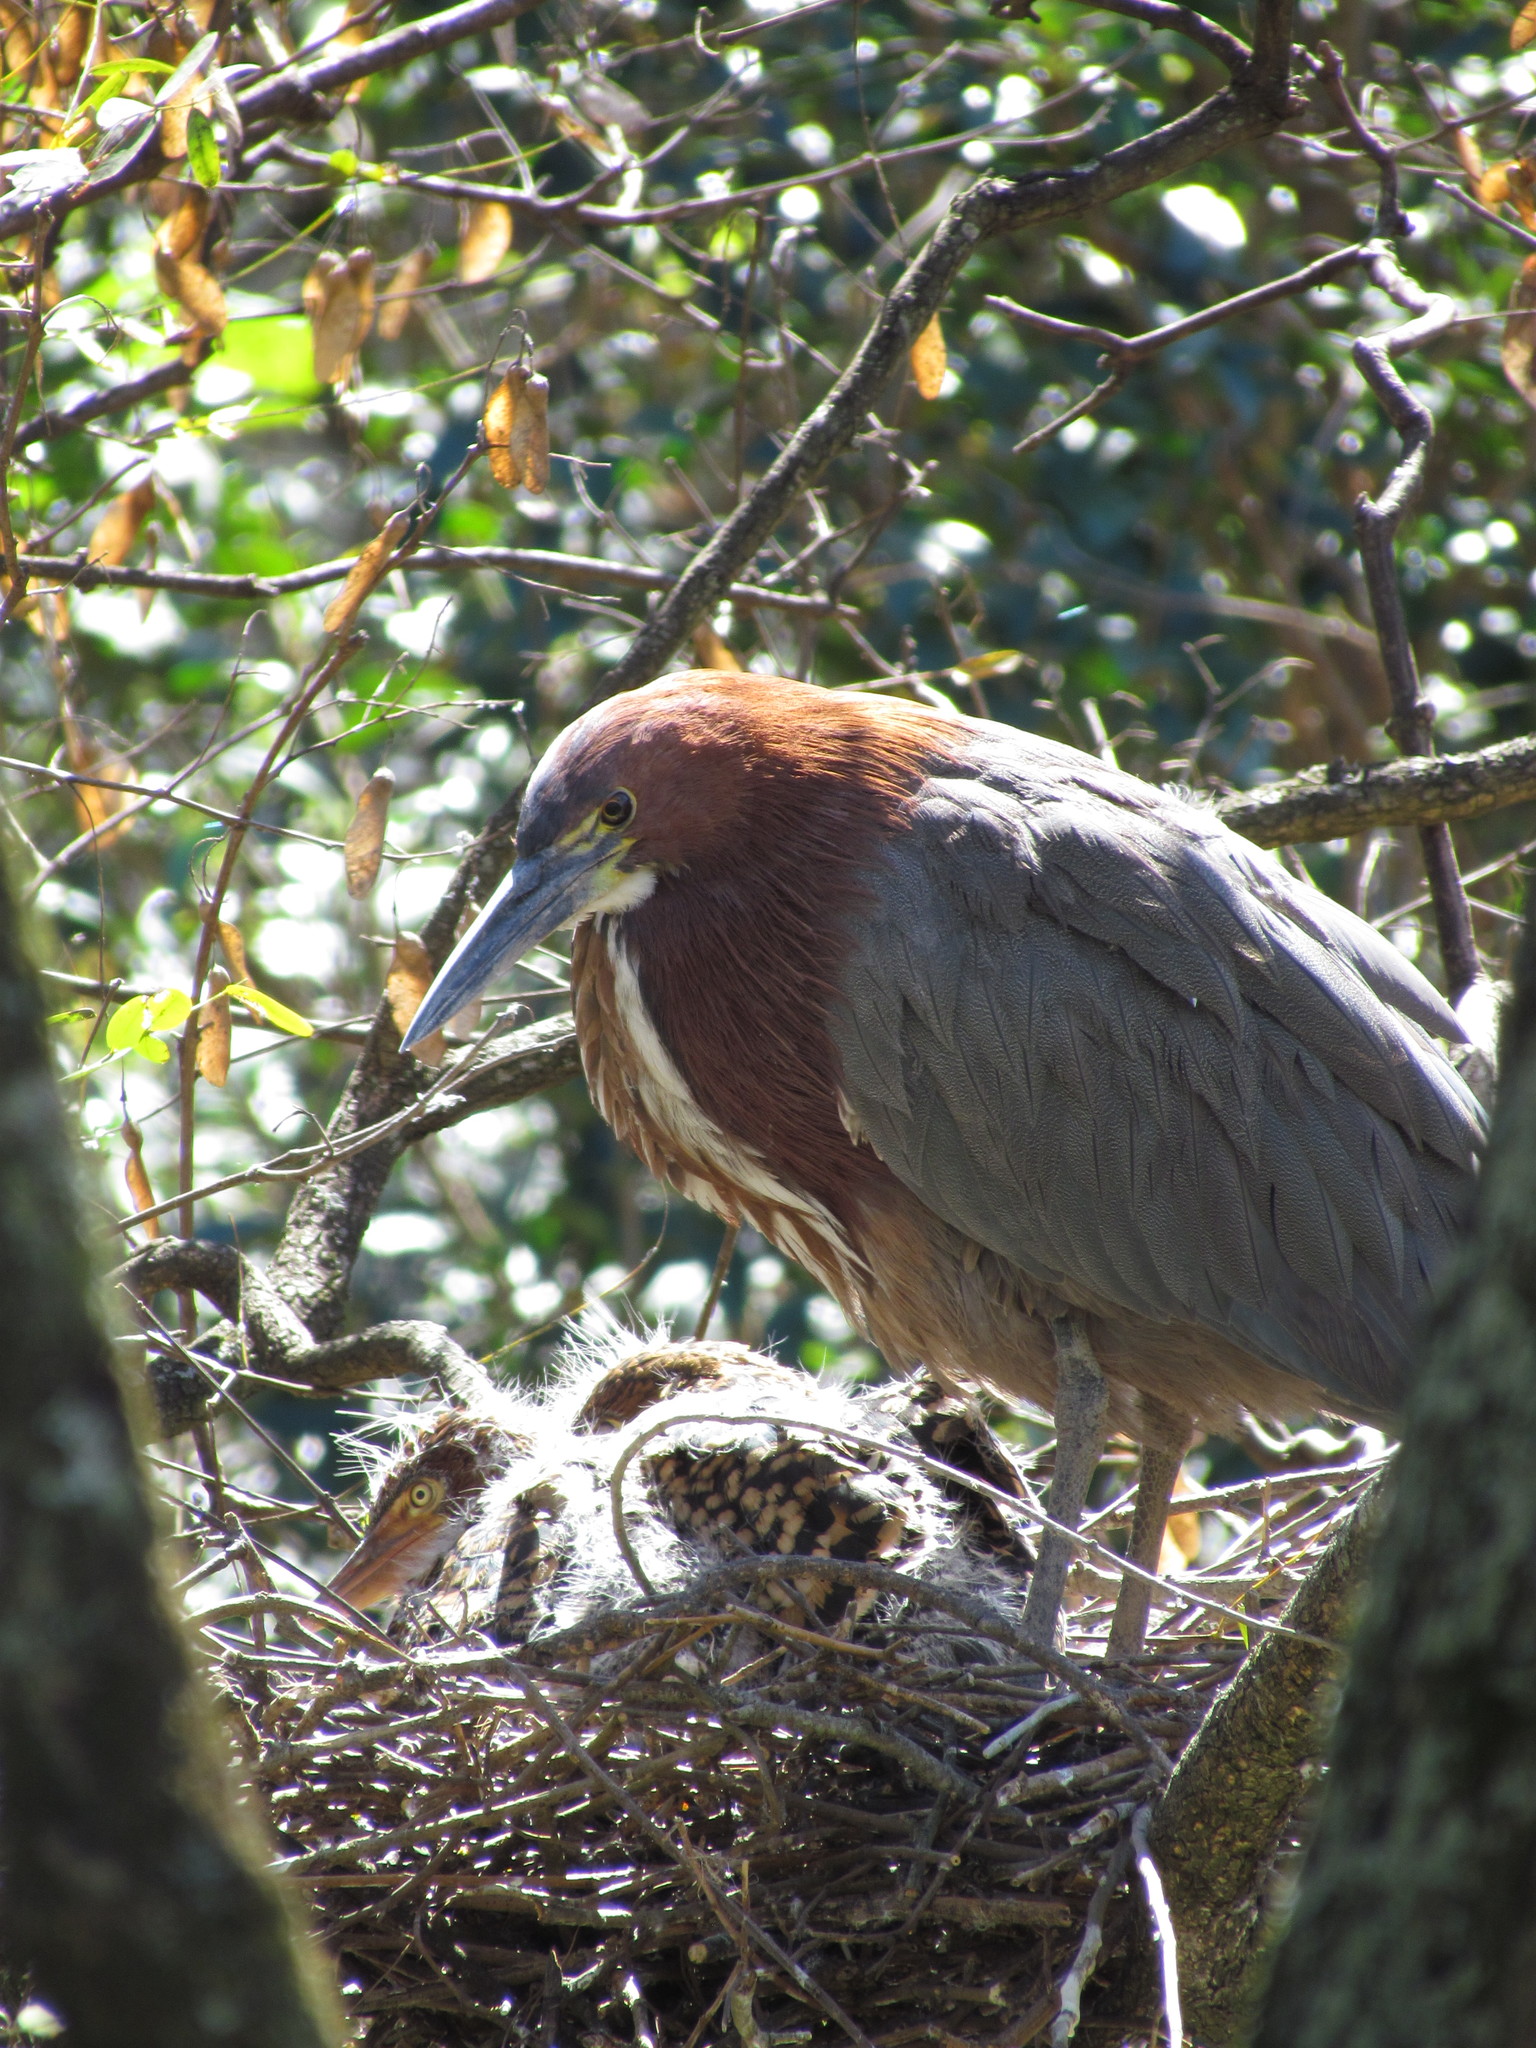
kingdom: Animalia
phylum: Chordata
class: Aves
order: Pelecaniformes
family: Ardeidae
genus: Tigrisoma
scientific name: Tigrisoma lineatum
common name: Rufescent tiger-heron
